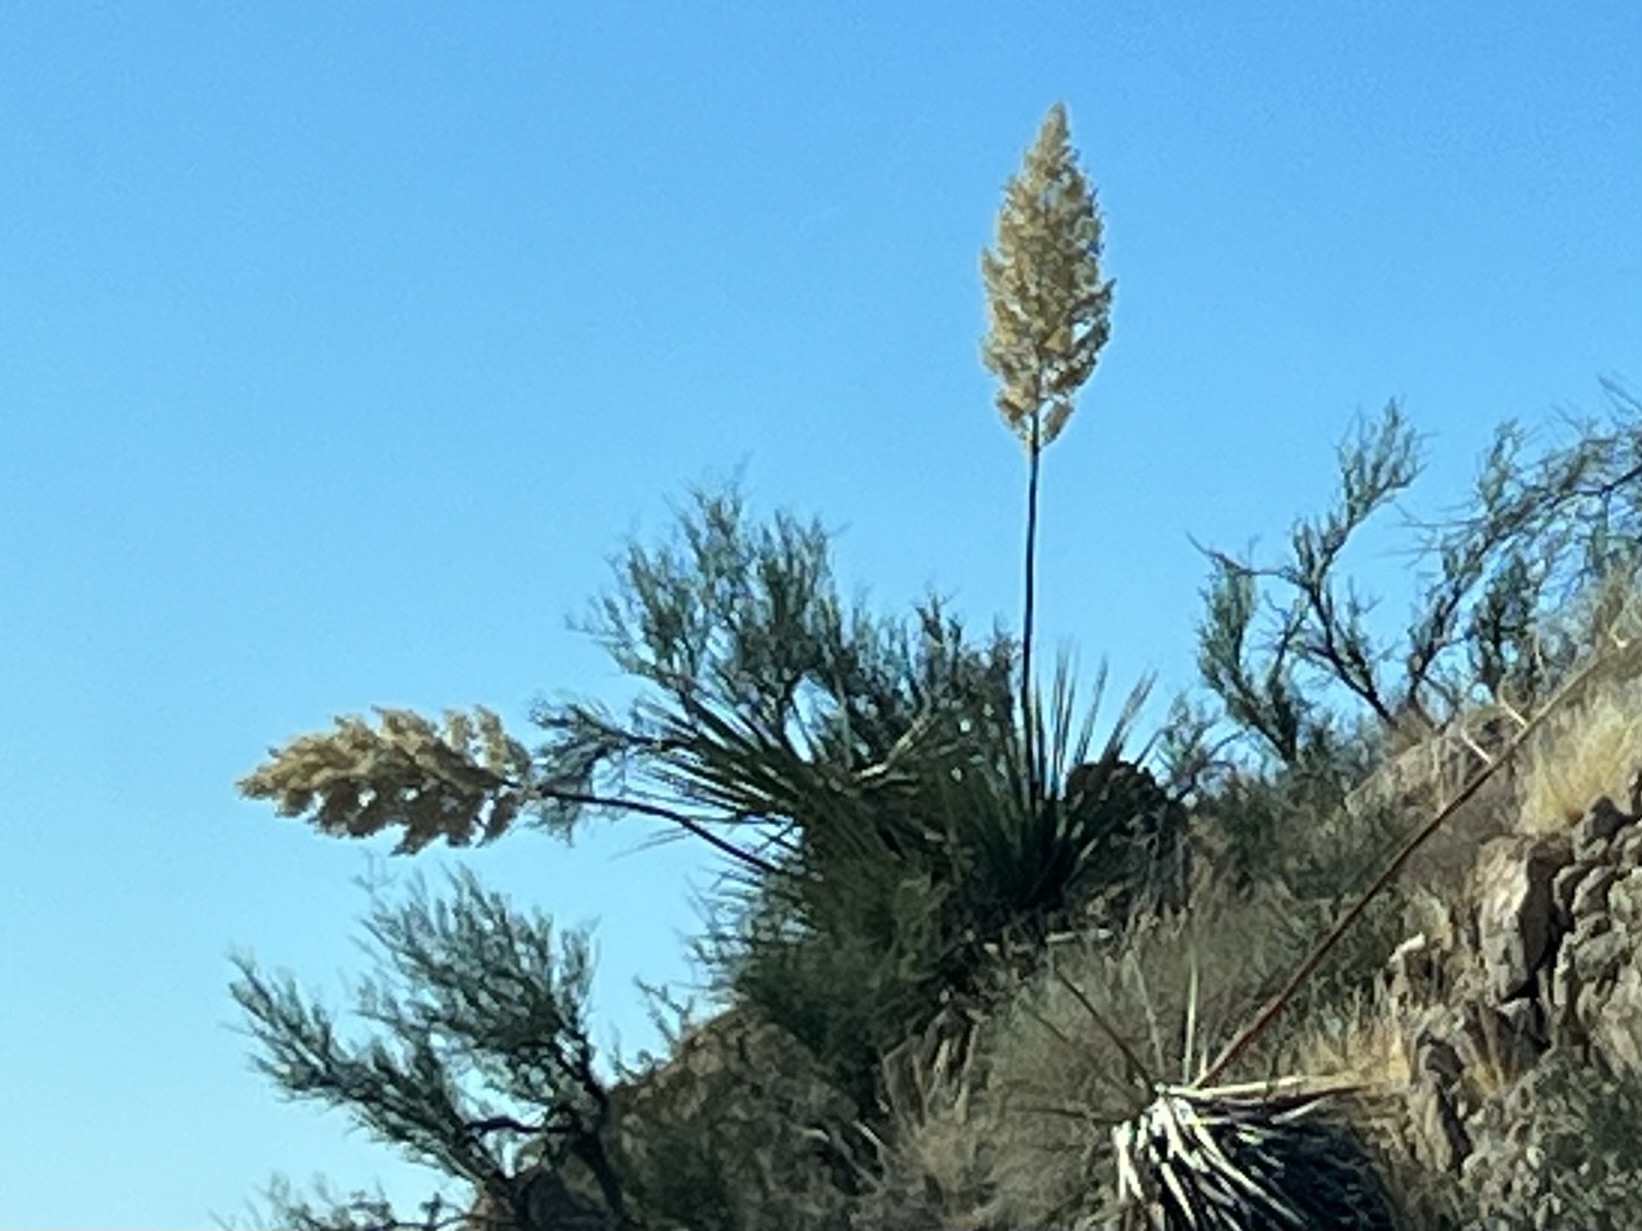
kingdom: Plantae
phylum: Tracheophyta
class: Liliopsida
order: Asparagales
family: Asparagaceae
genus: Nolina
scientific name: Nolina bigelovii
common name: Bigelow bear-grass
